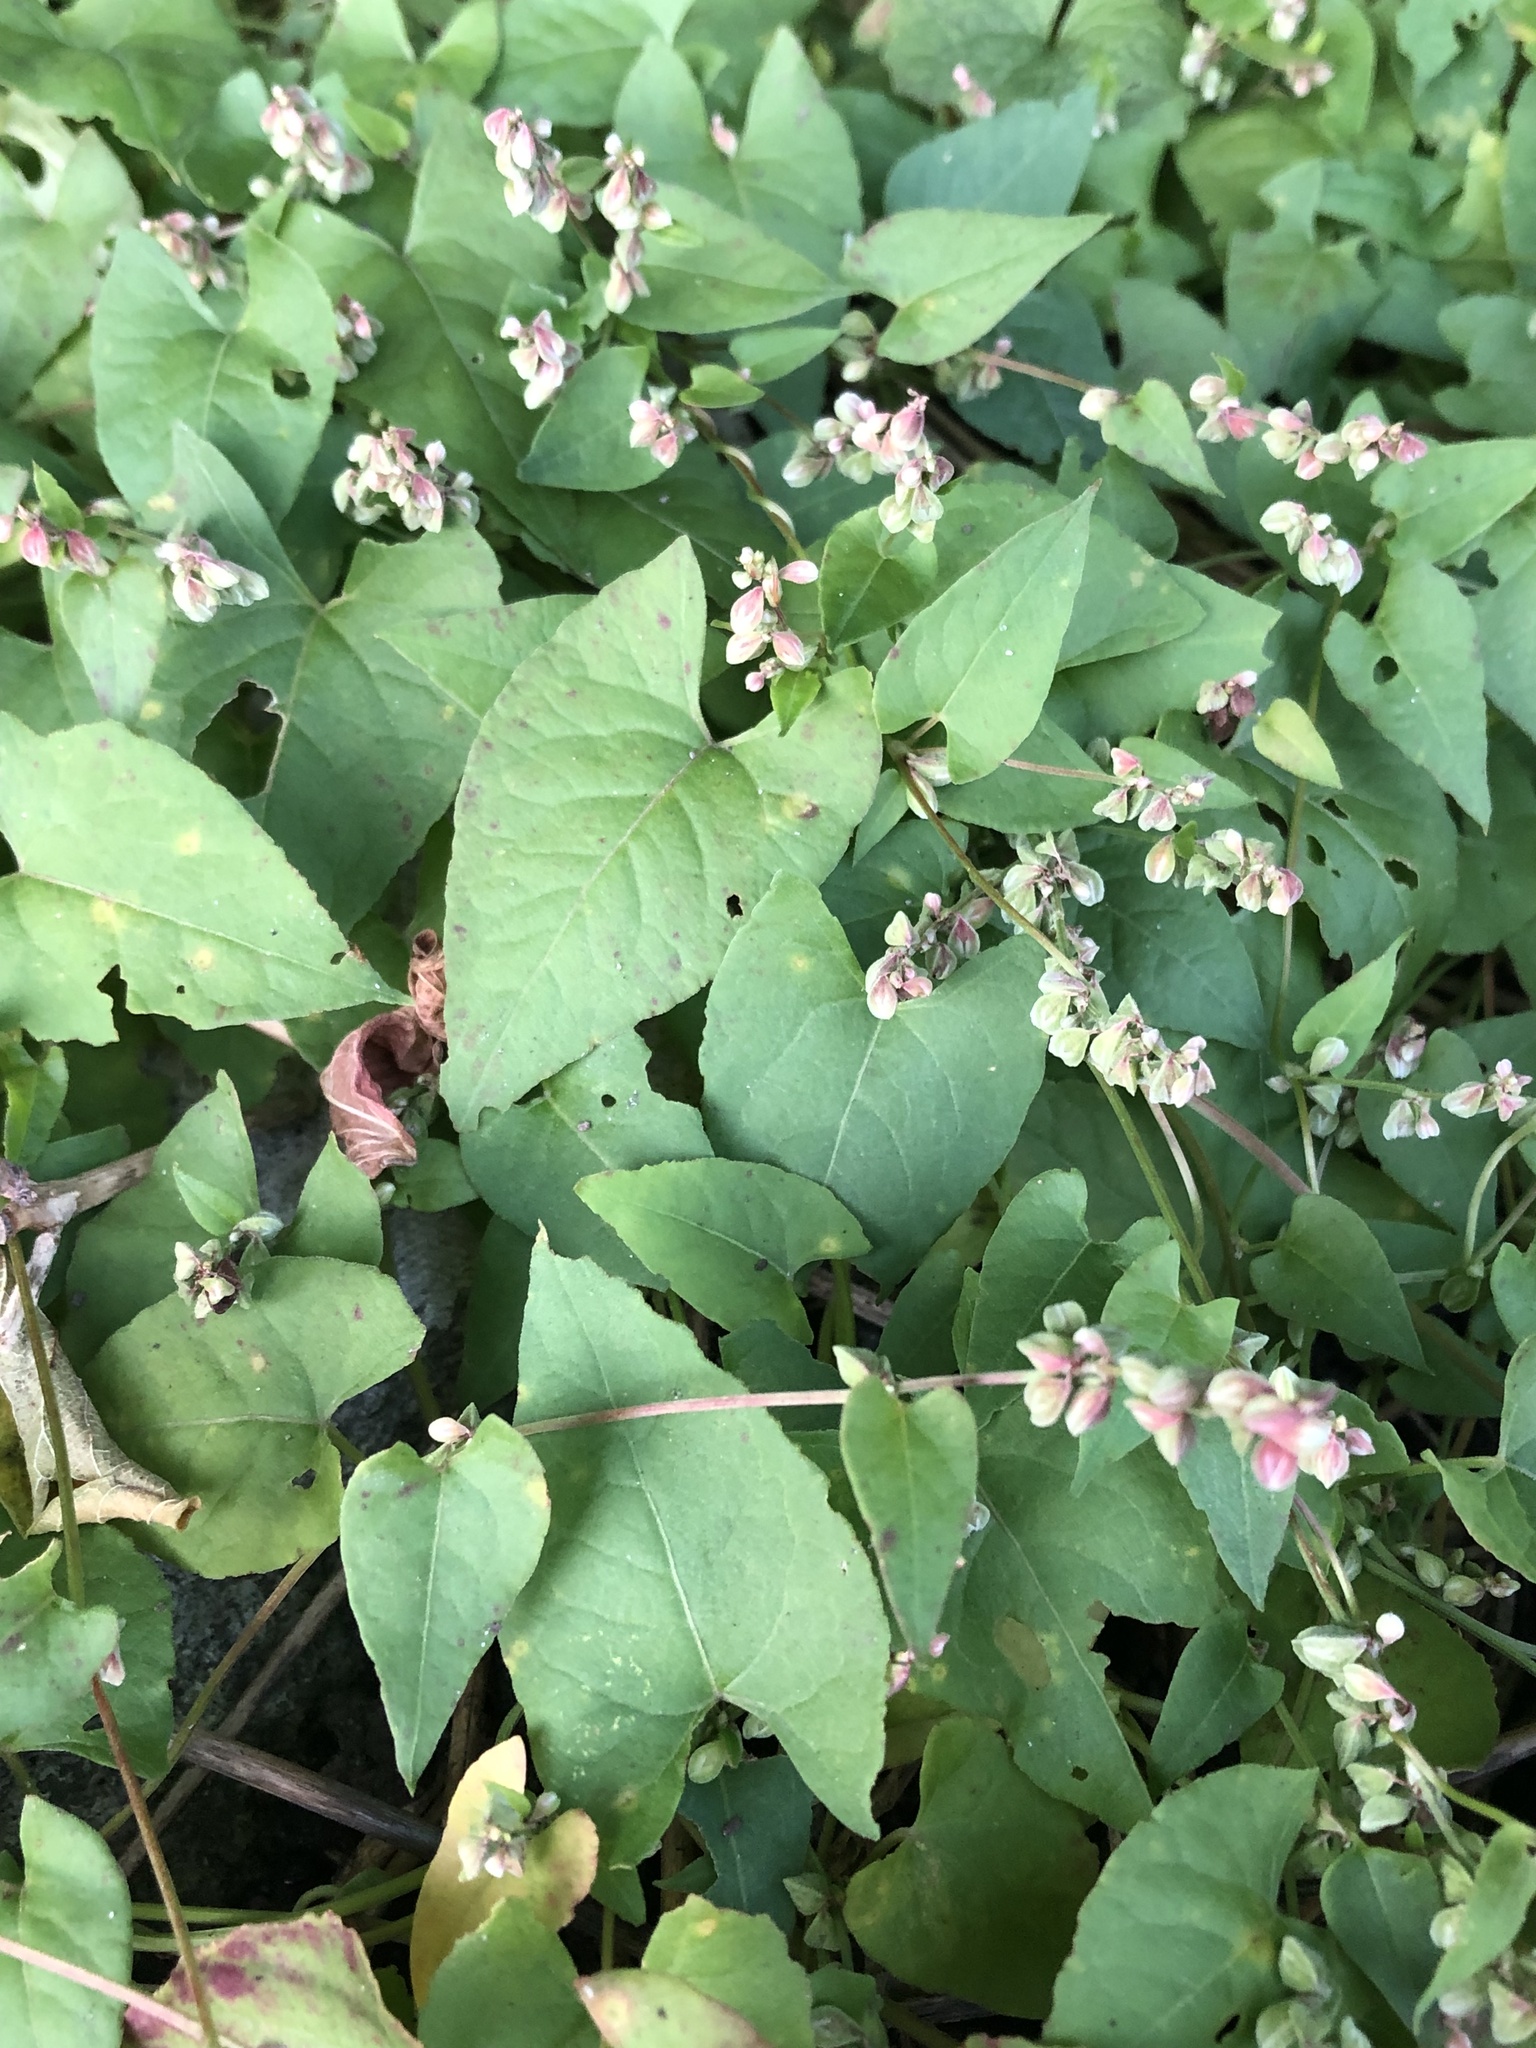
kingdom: Plantae
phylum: Tracheophyta
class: Magnoliopsida
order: Caryophyllales
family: Polygonaceae
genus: Fallopia
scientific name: Fallopia convolvulus
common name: Black bindweed
